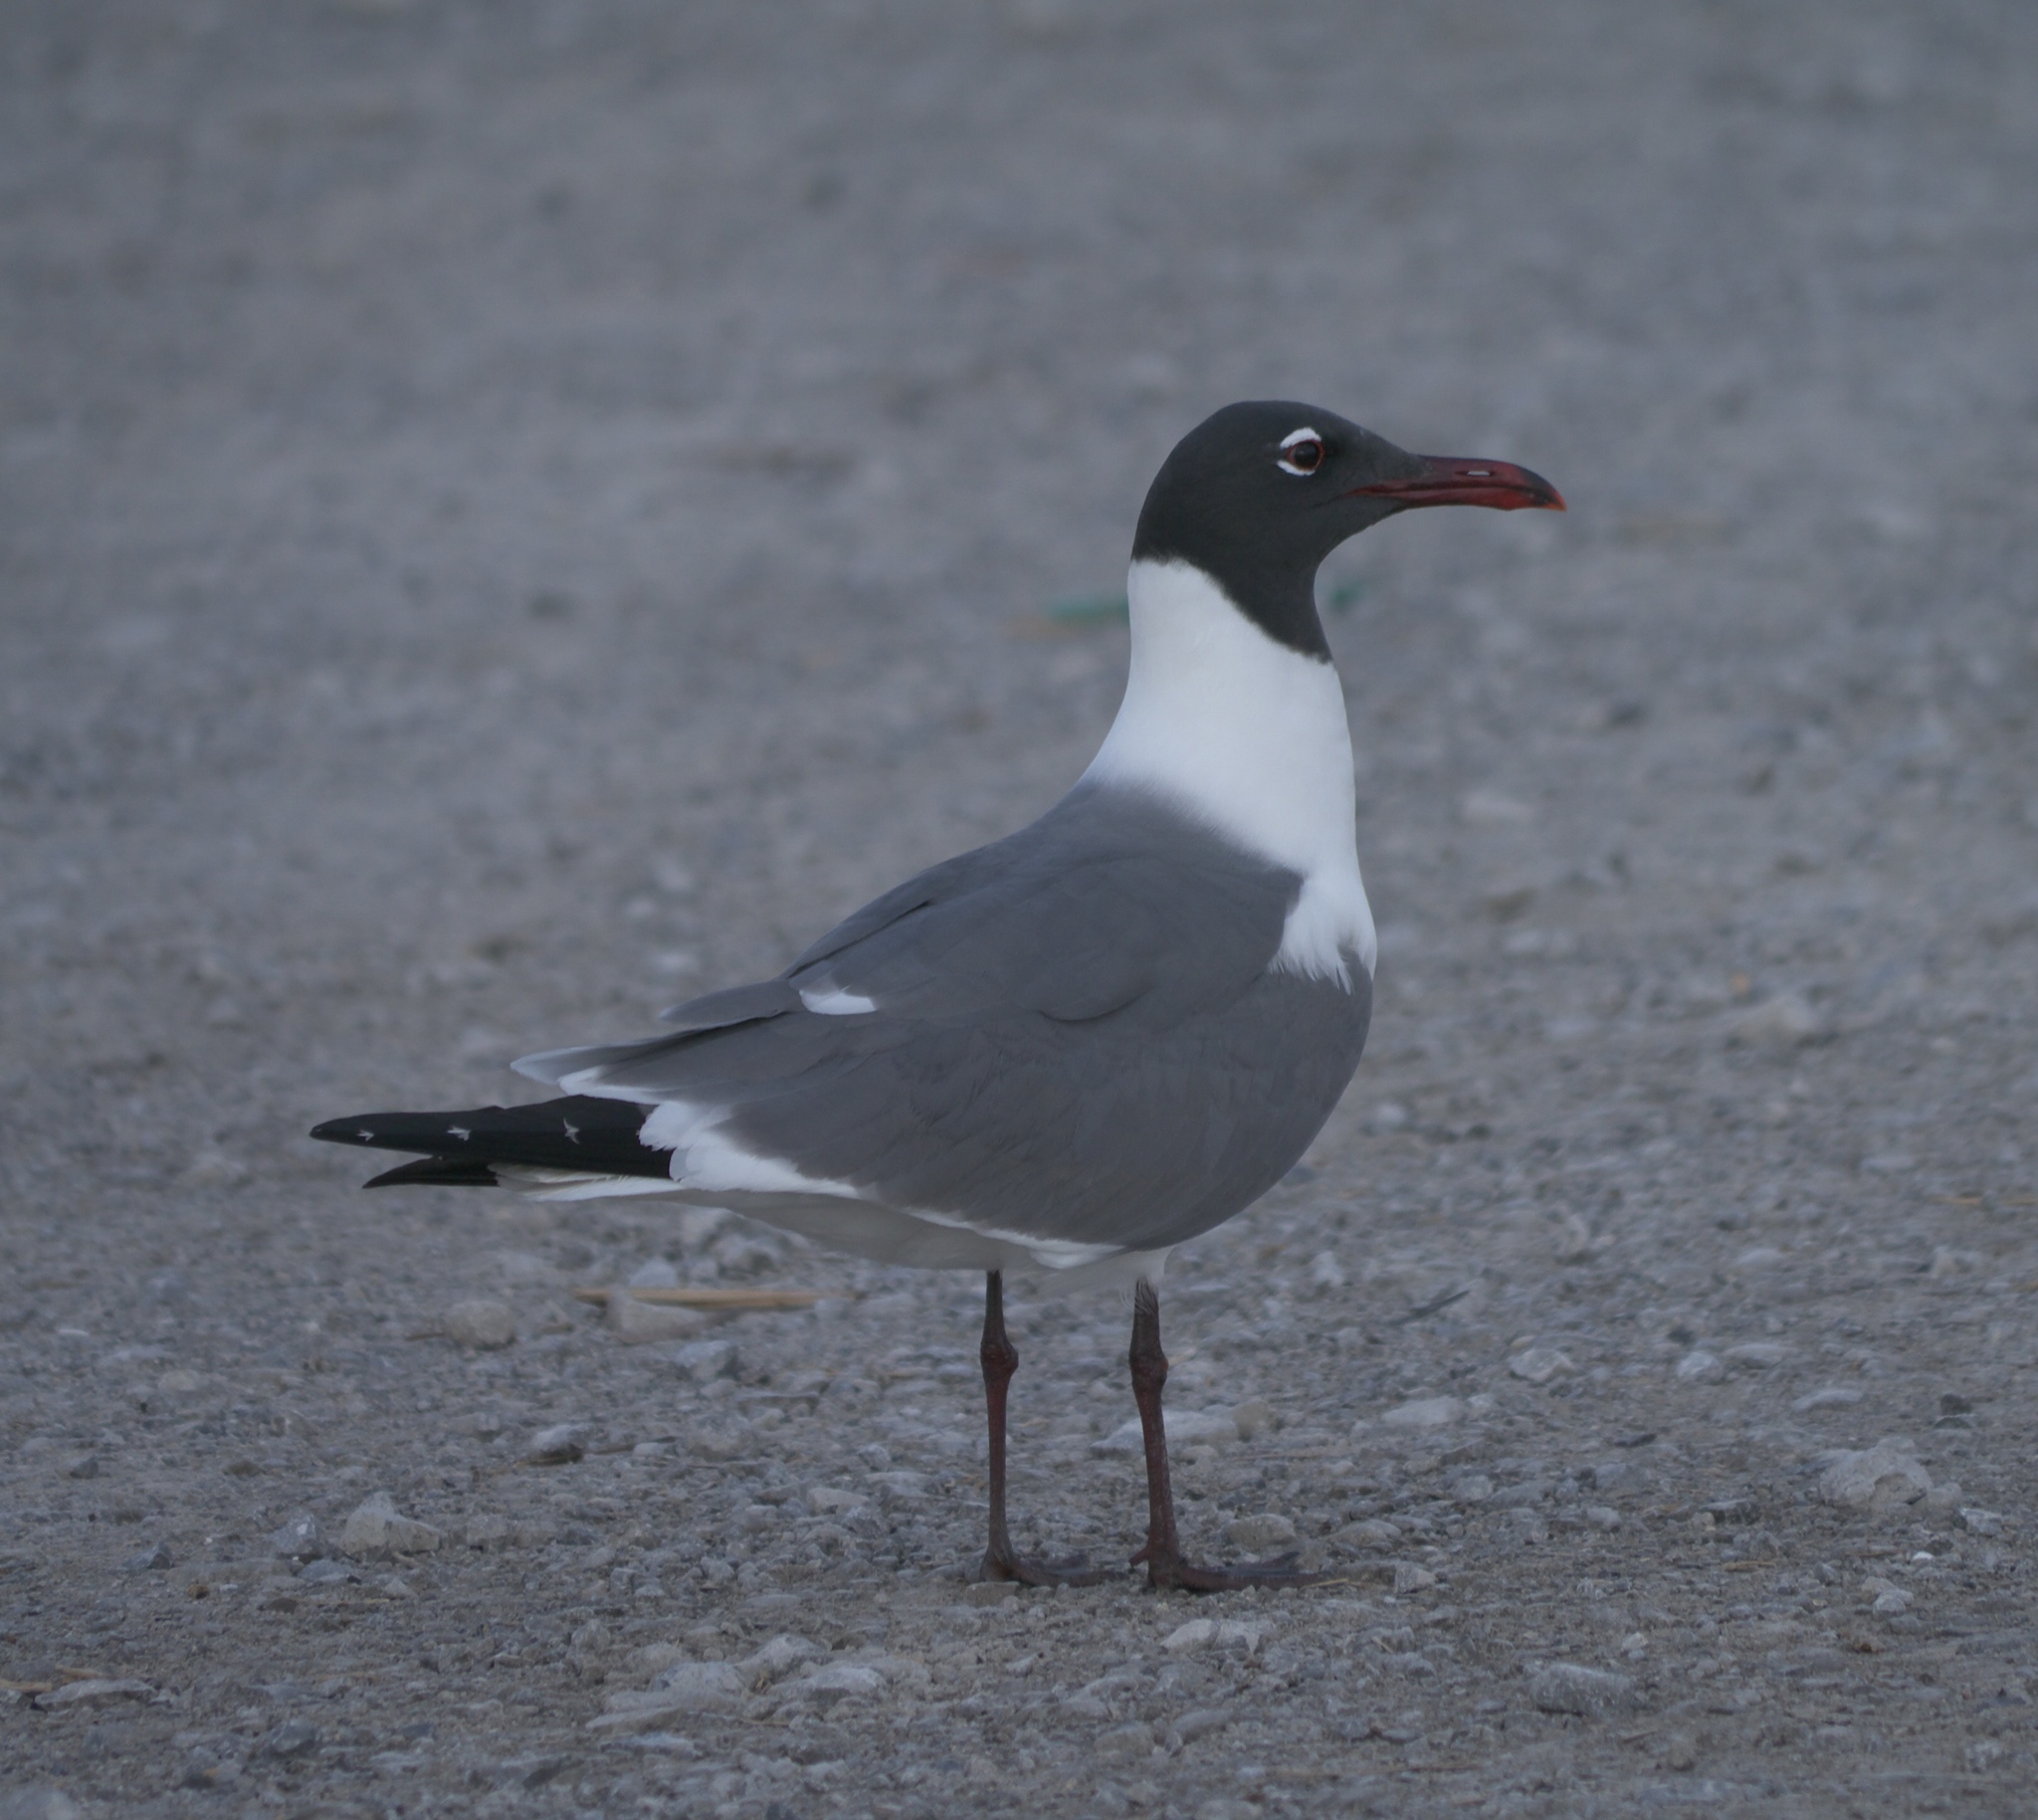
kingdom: Animalia
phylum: Chordata
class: Aves
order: Charadriiformes
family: Laridae
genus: Leucophaeus
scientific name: Leucophaeus atricilla
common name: Laughing gull
